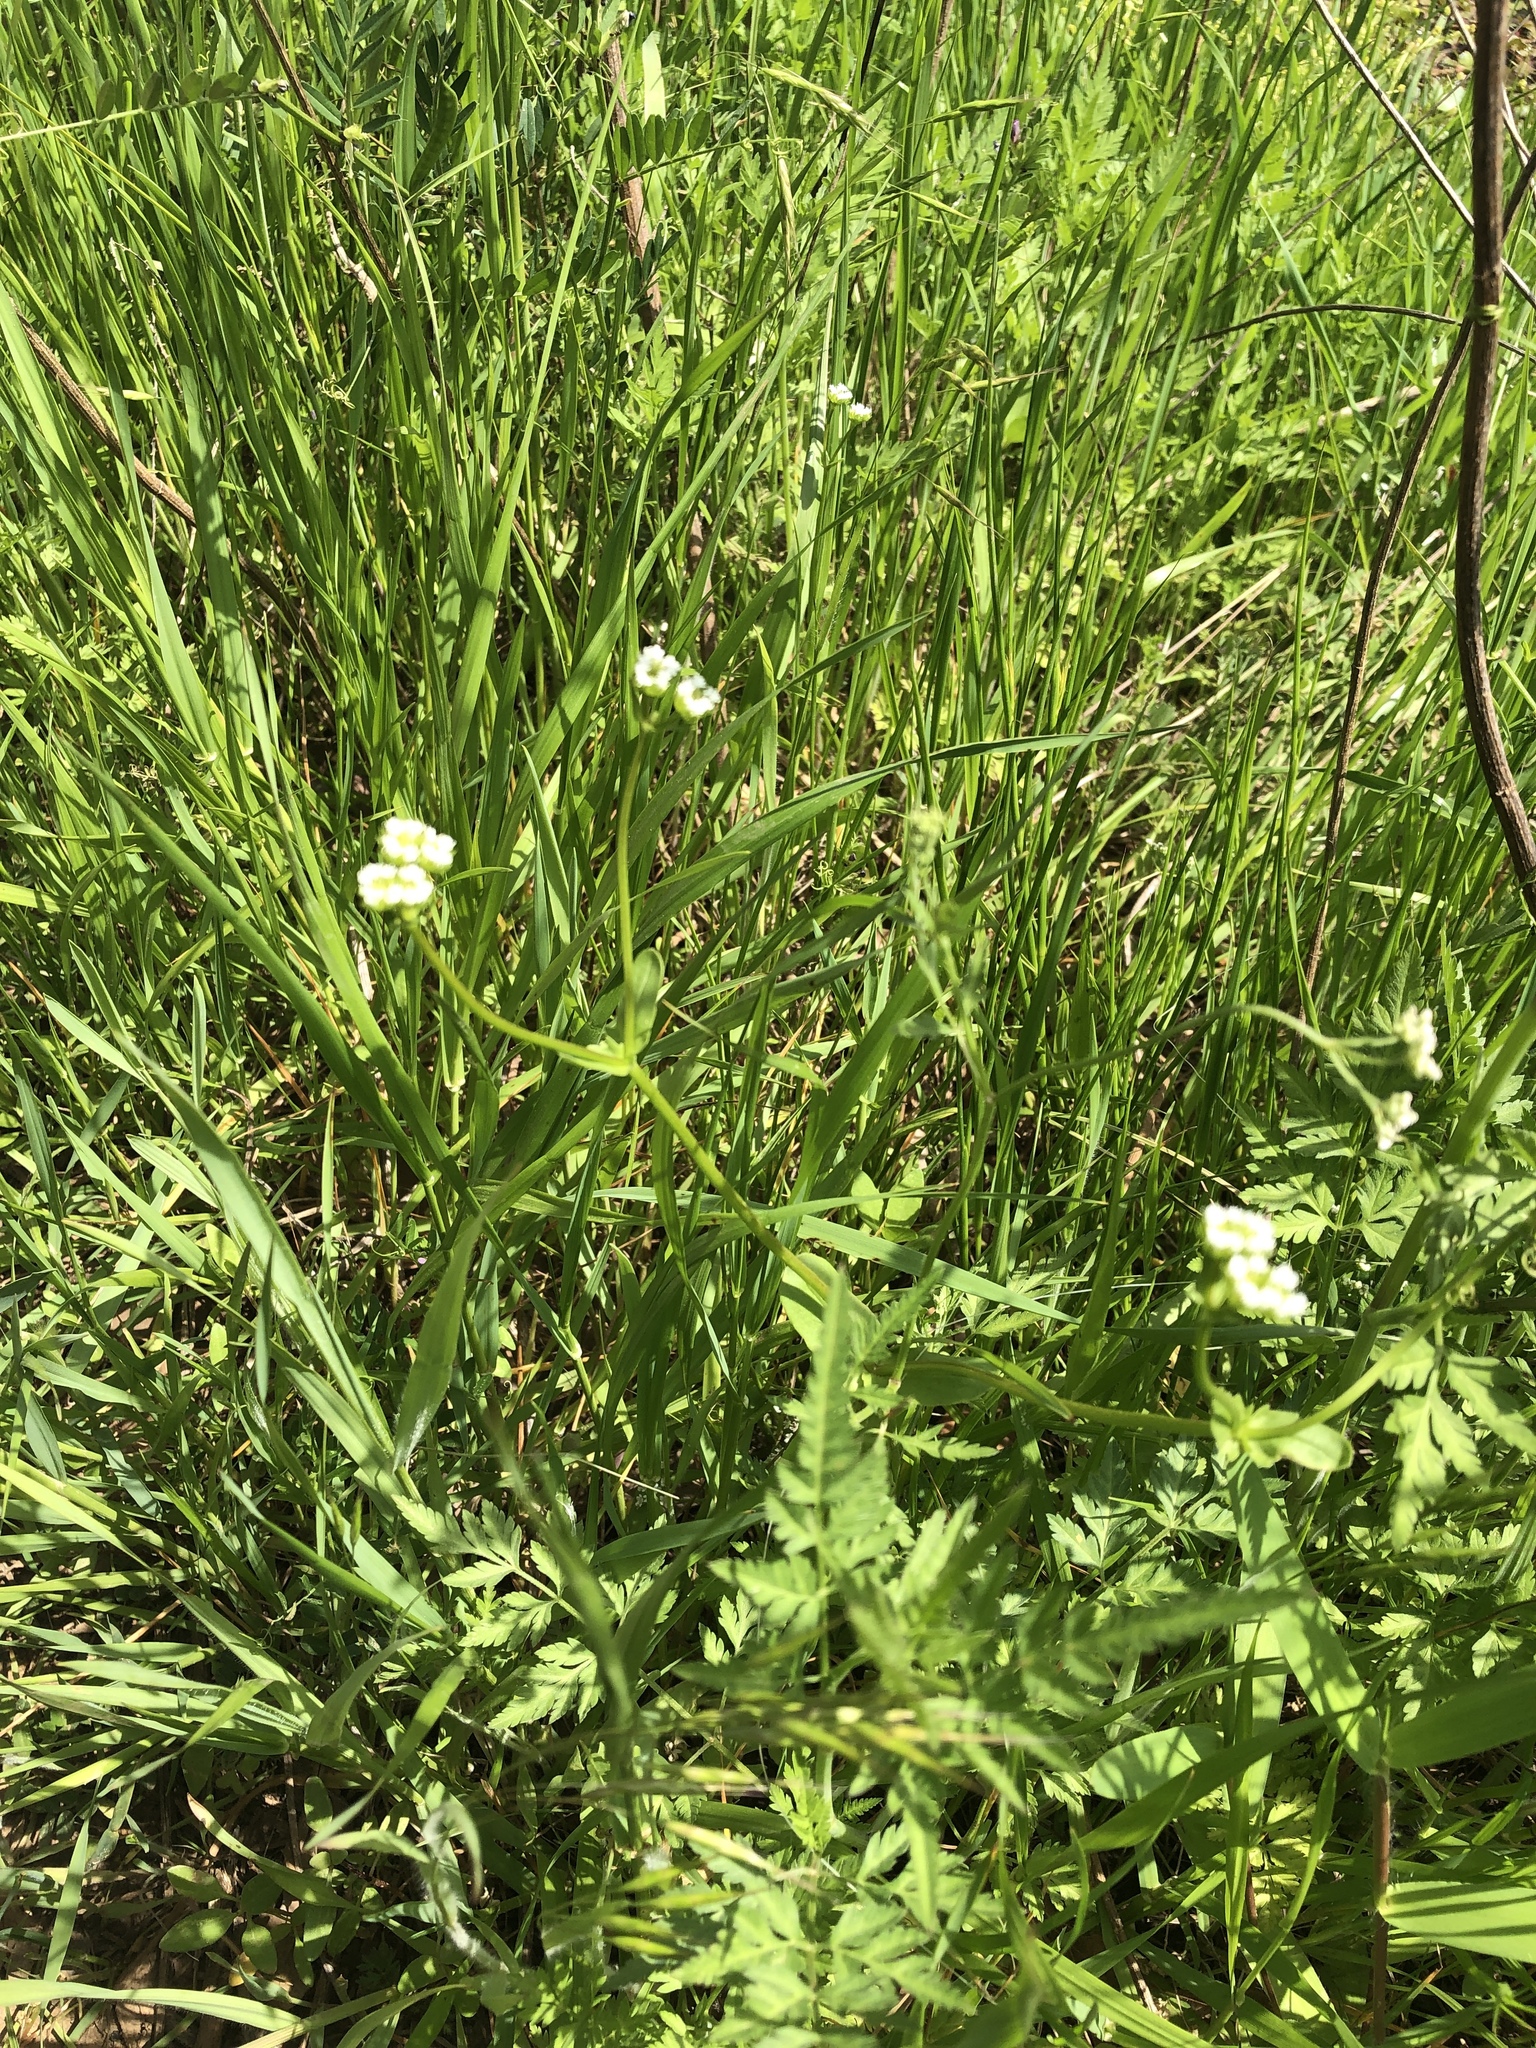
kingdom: Plantae
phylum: Tracheophyta
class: Magnoliopsida
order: Dipsacales
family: Caprifoliaceae
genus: Valerianella
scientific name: Valerianella radiata
